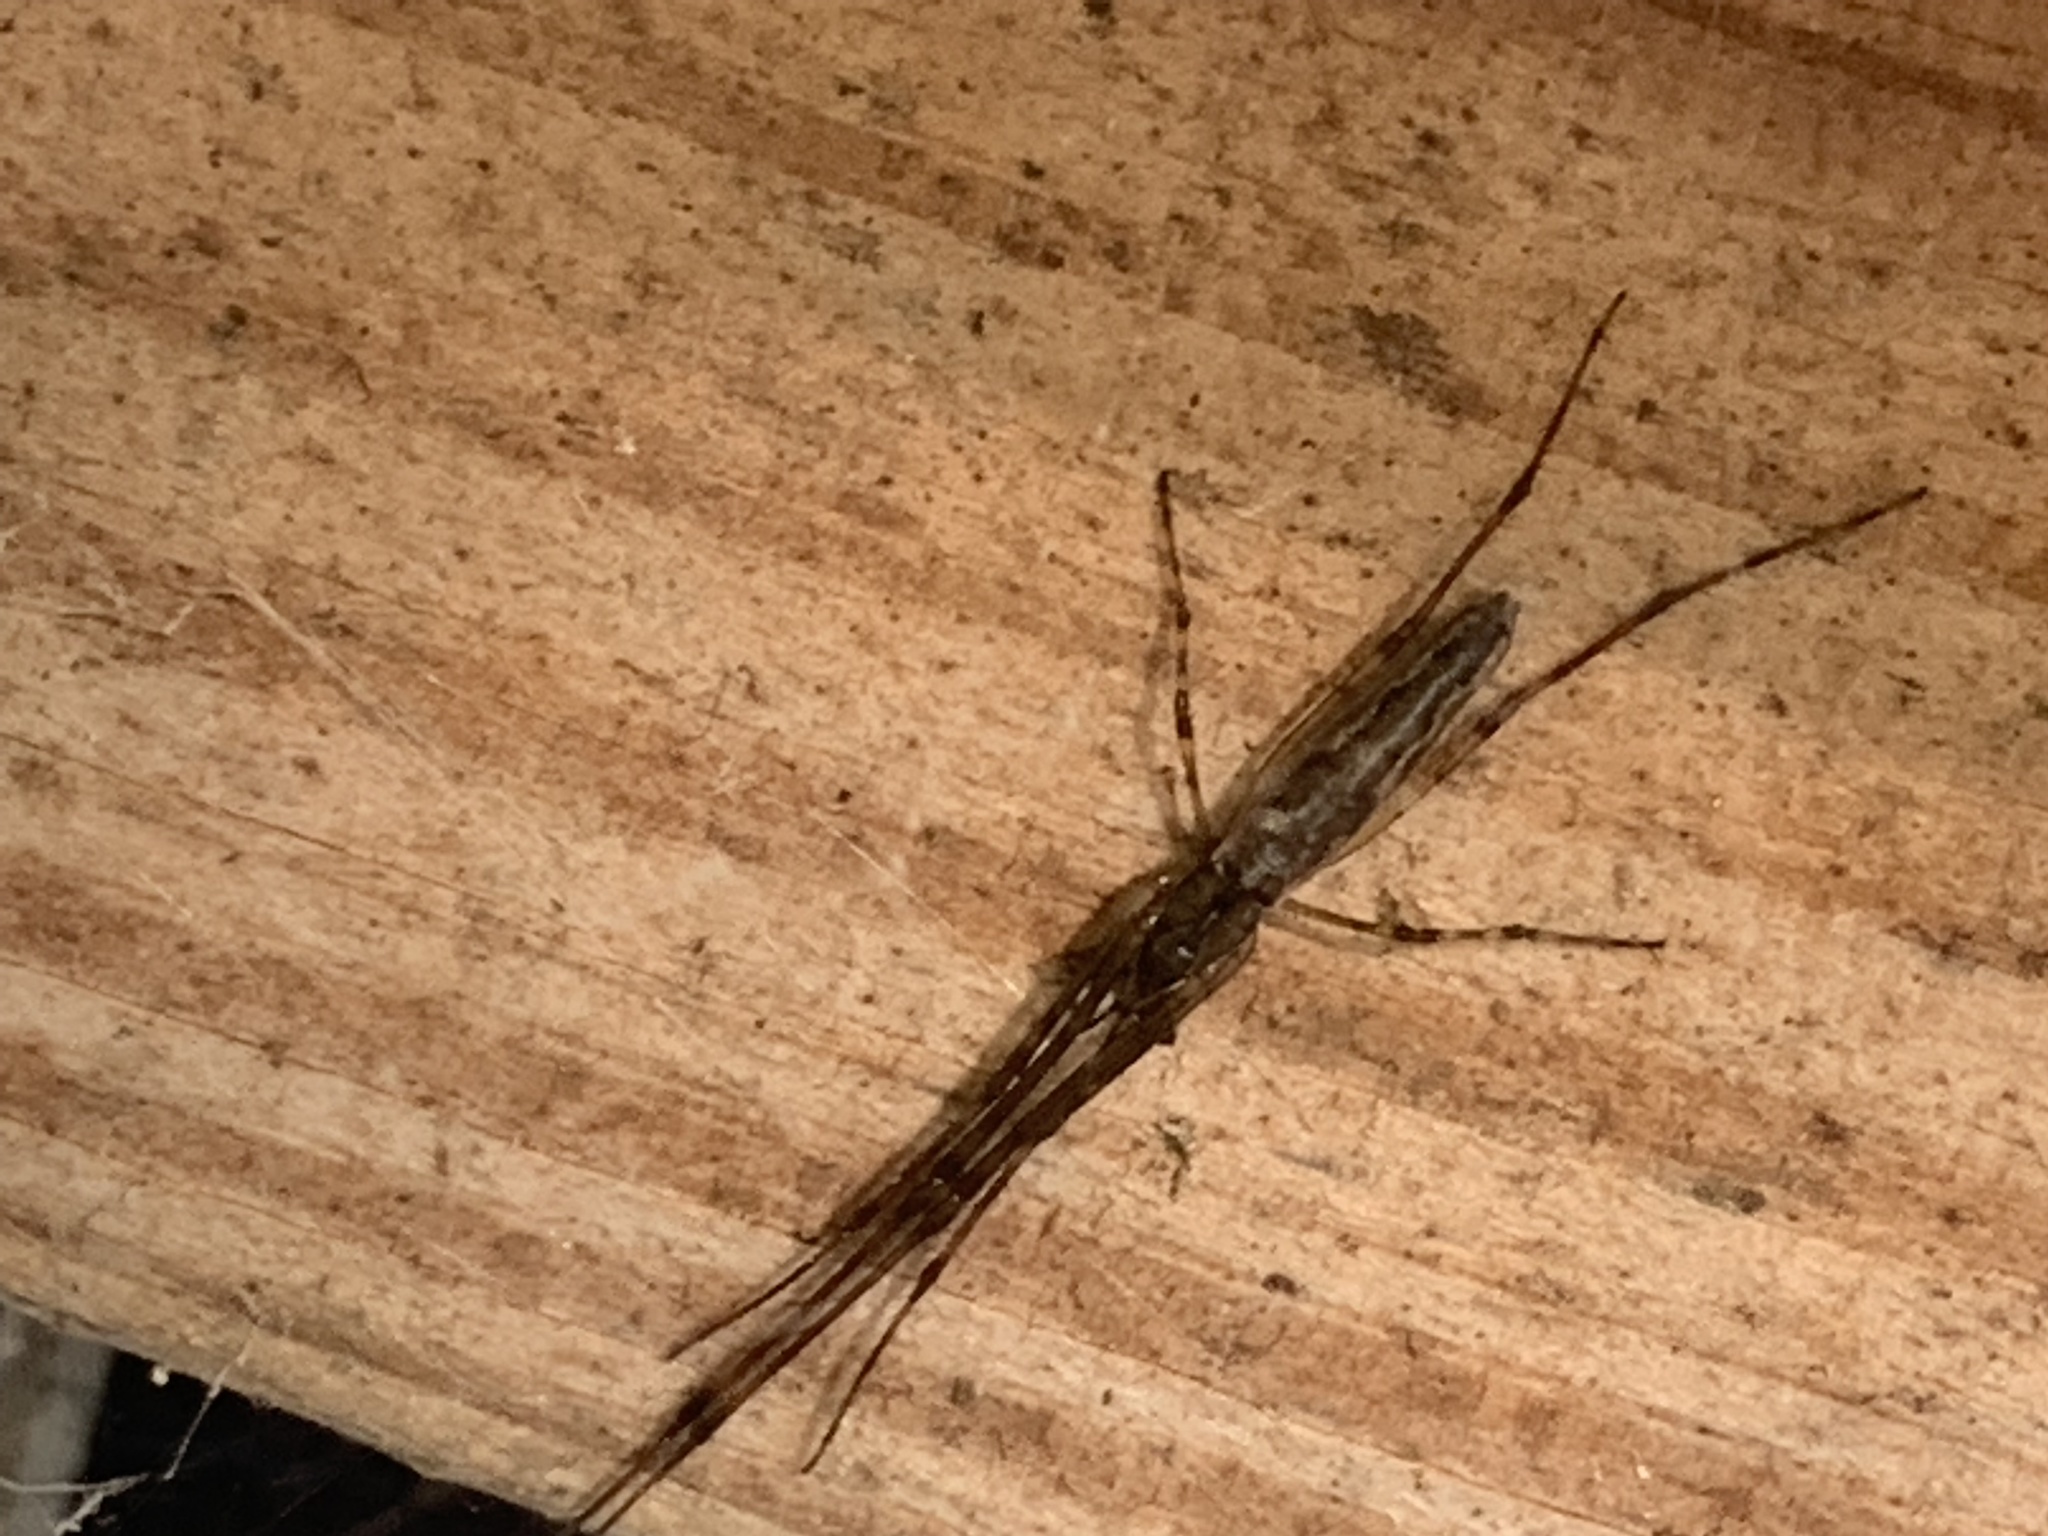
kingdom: Animalia
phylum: Arthropoda
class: Arachnida
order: Araneae
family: Tetragnathidae
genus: Tetragnatha
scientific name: Tetragnatha
